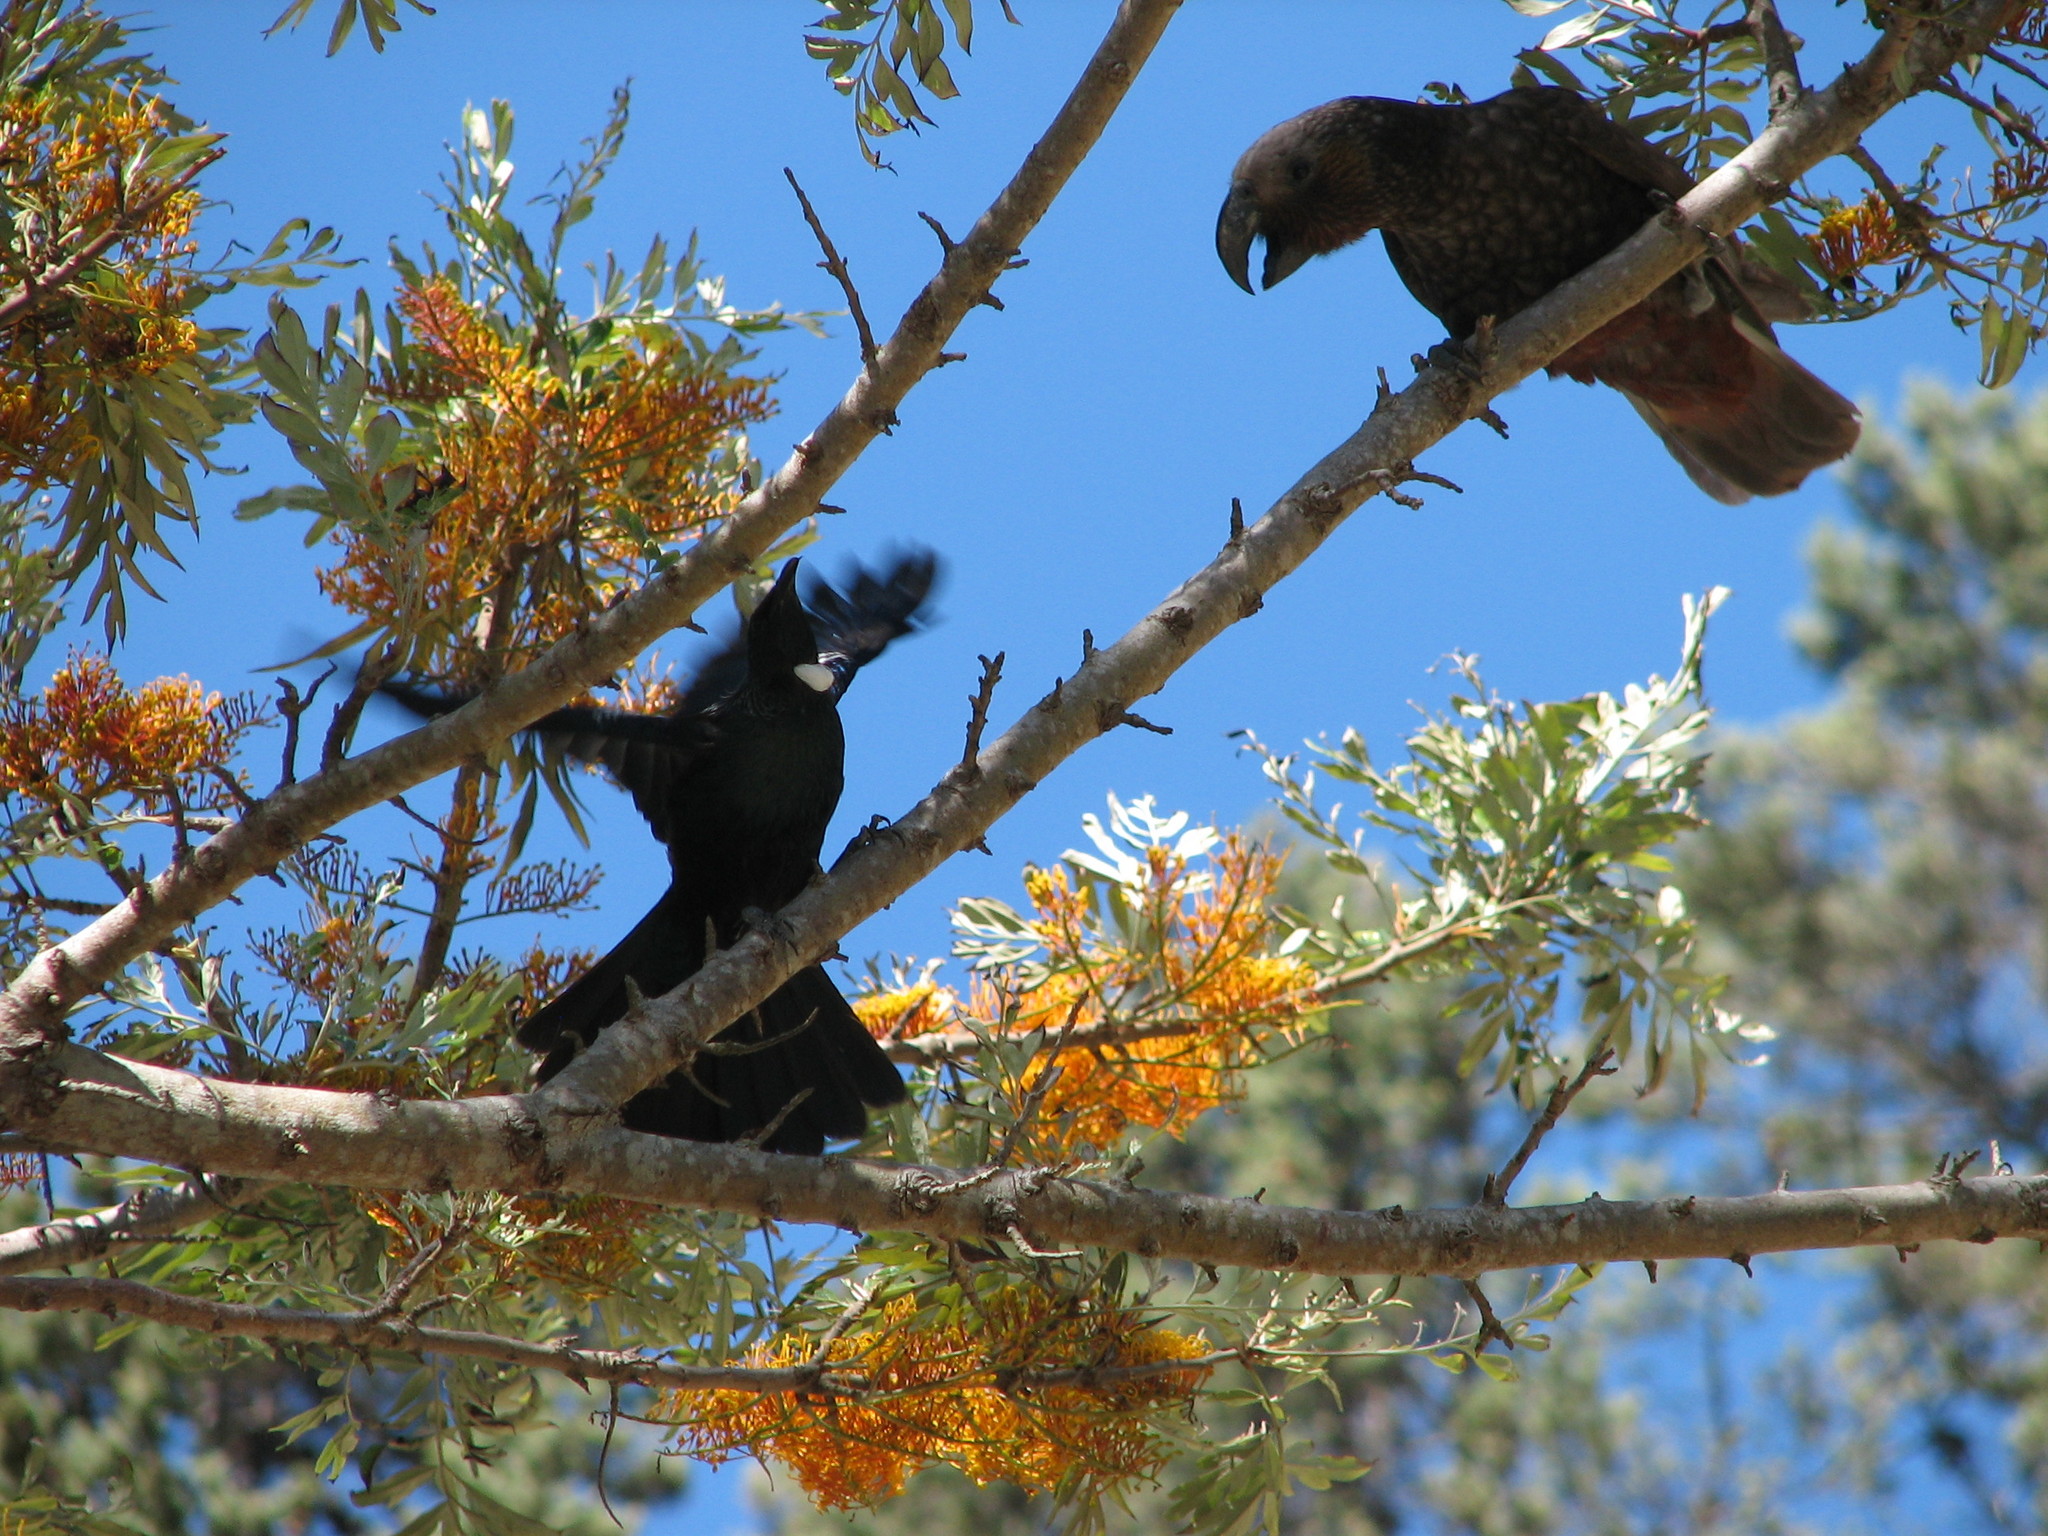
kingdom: Animalia
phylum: Chordata
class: Aves
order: Psittaciformes
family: Psittacidae
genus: Nestor
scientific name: Nestor meridionalis
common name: New zealand kaka
